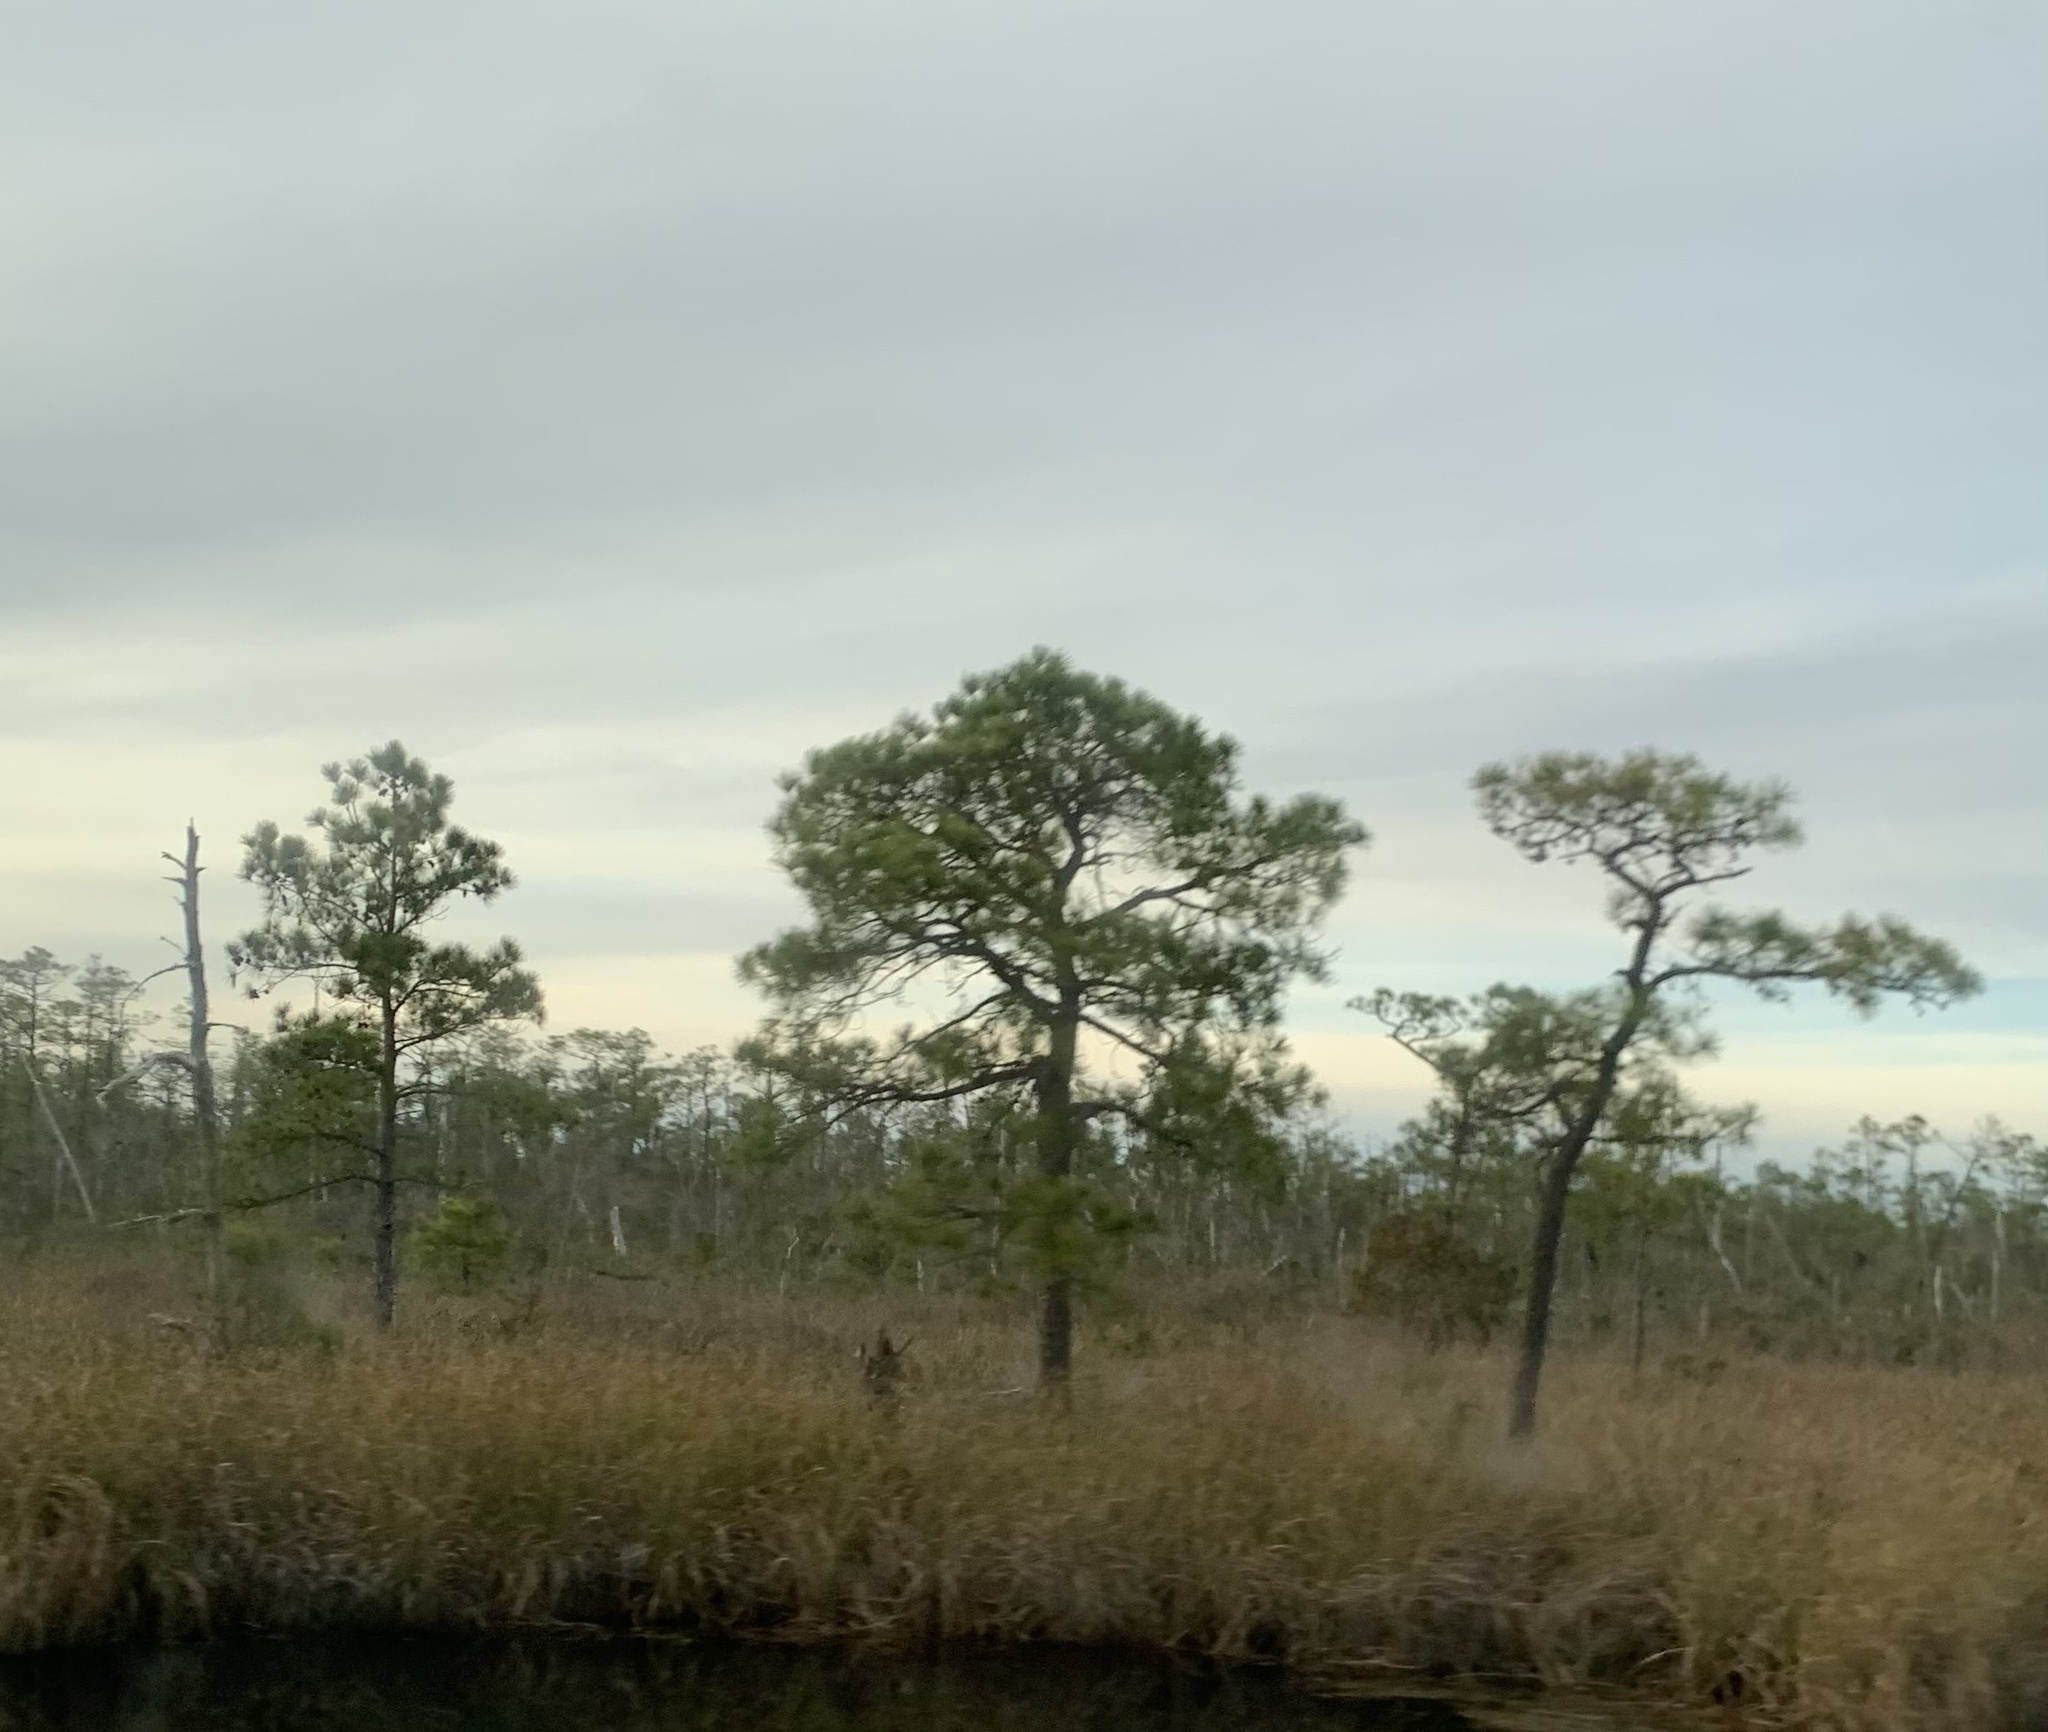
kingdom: Plantae
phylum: Tracheophyta
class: Pinopsida
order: Pinales
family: Pinaceae
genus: Pinus
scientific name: Pinus serotina
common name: Marsh pine
